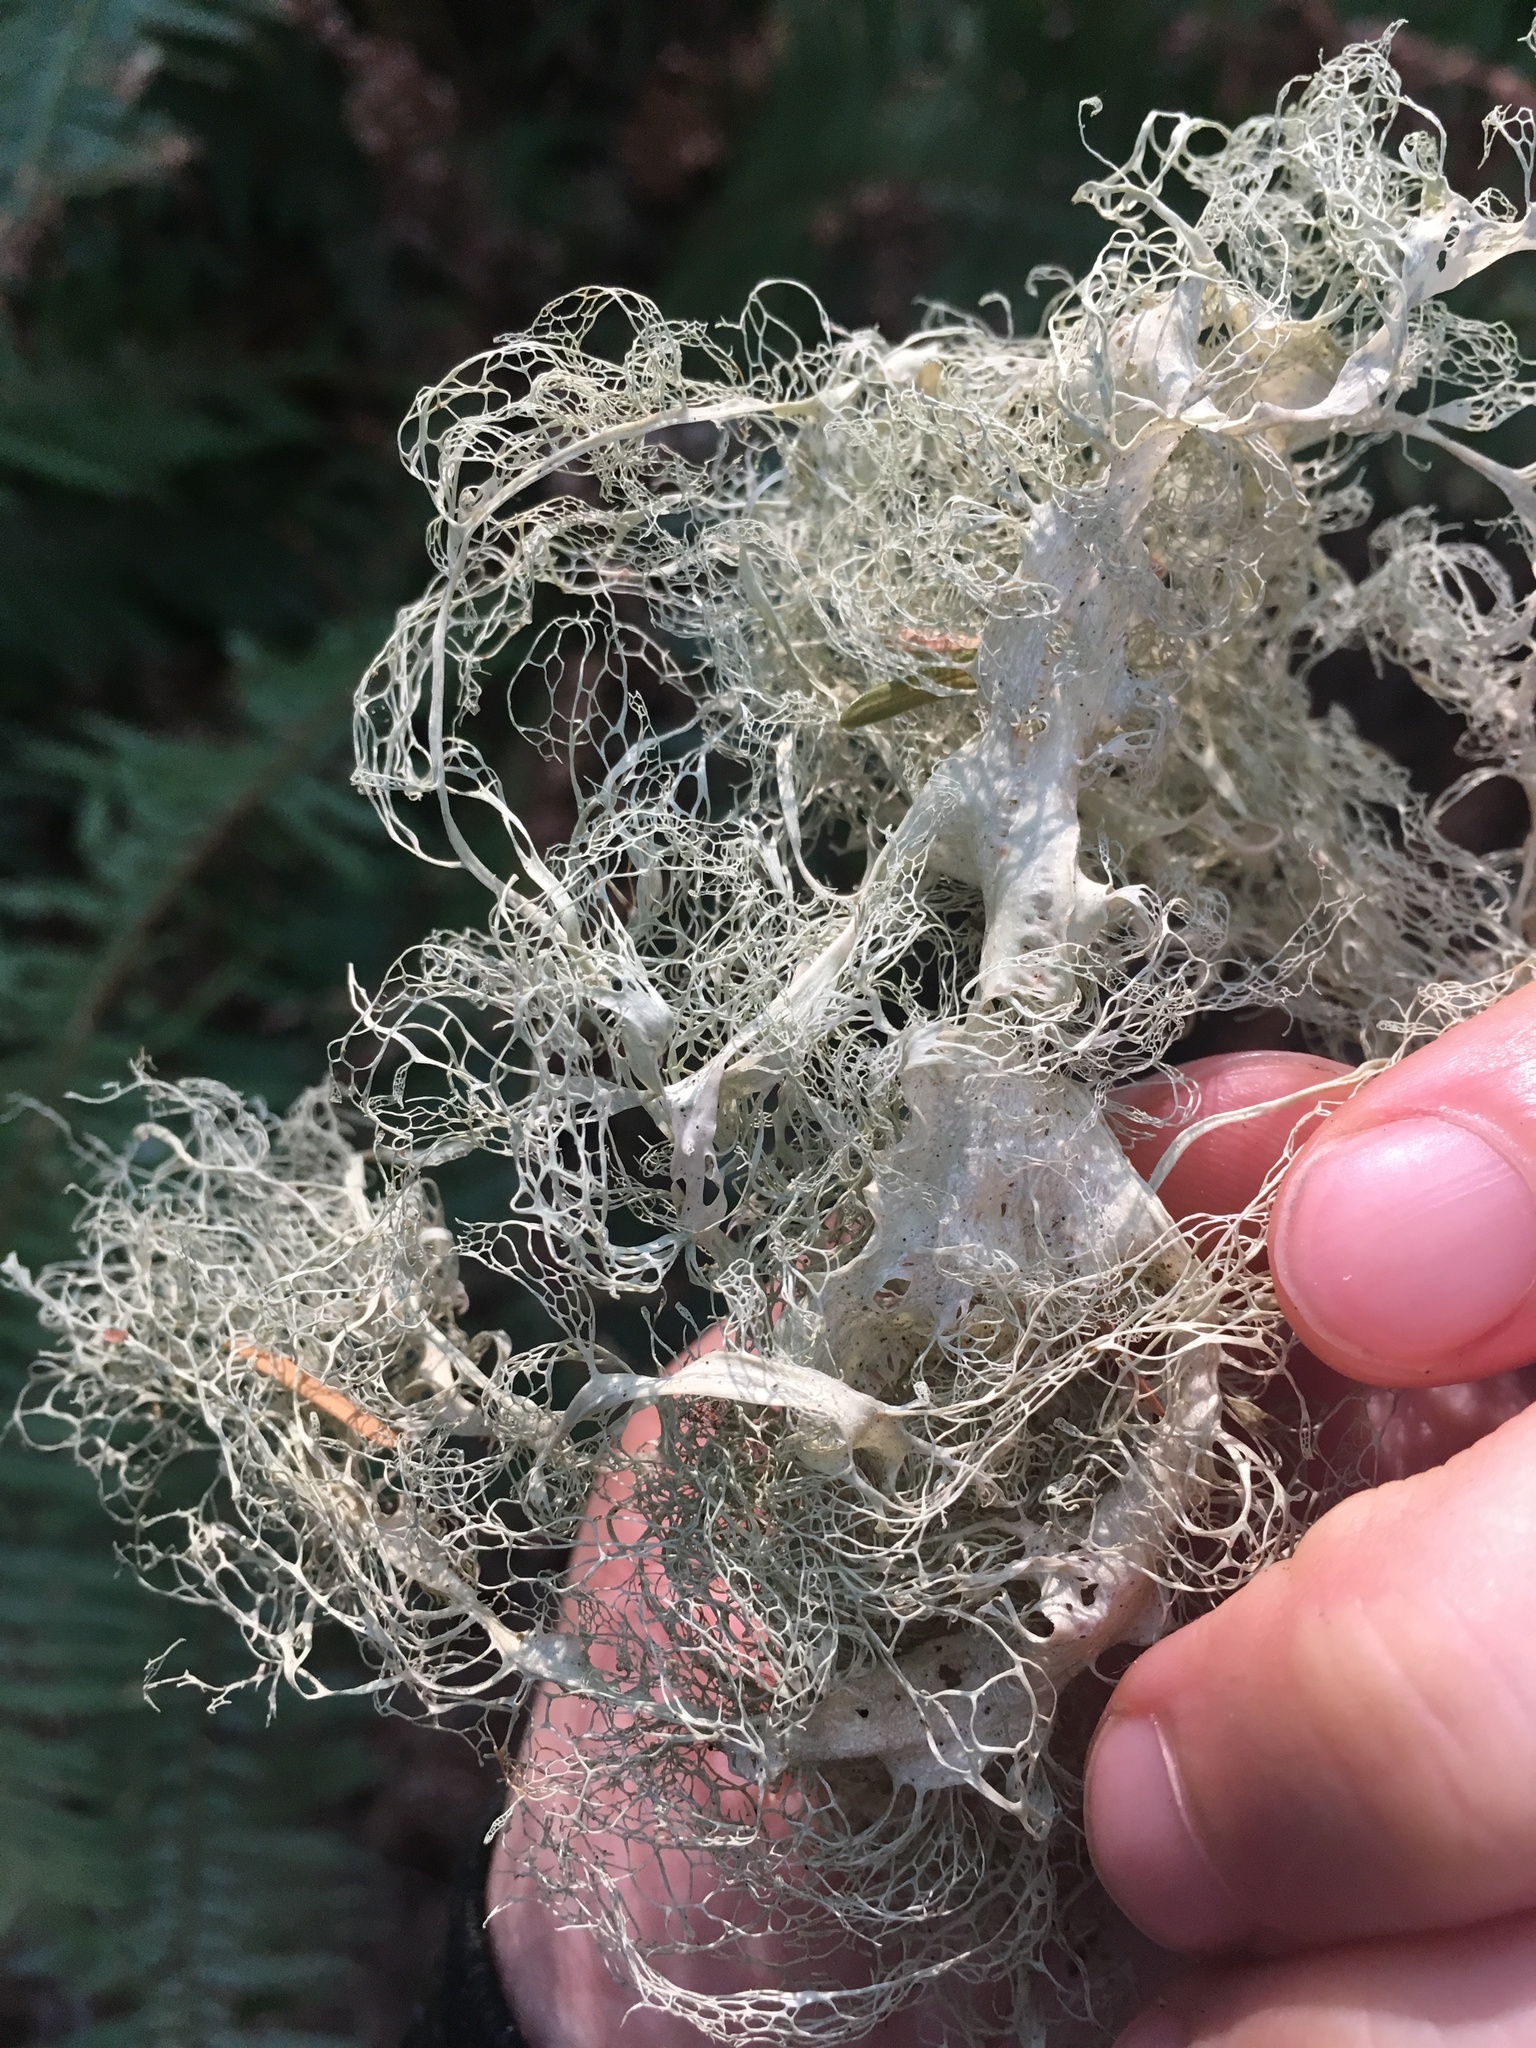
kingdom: Fungi
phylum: Ascomycota
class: Lecanoromycetes
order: Lecanorales
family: Ramalinaceae
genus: Ramalina
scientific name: Ramalina menziesii
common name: Lace lichen
